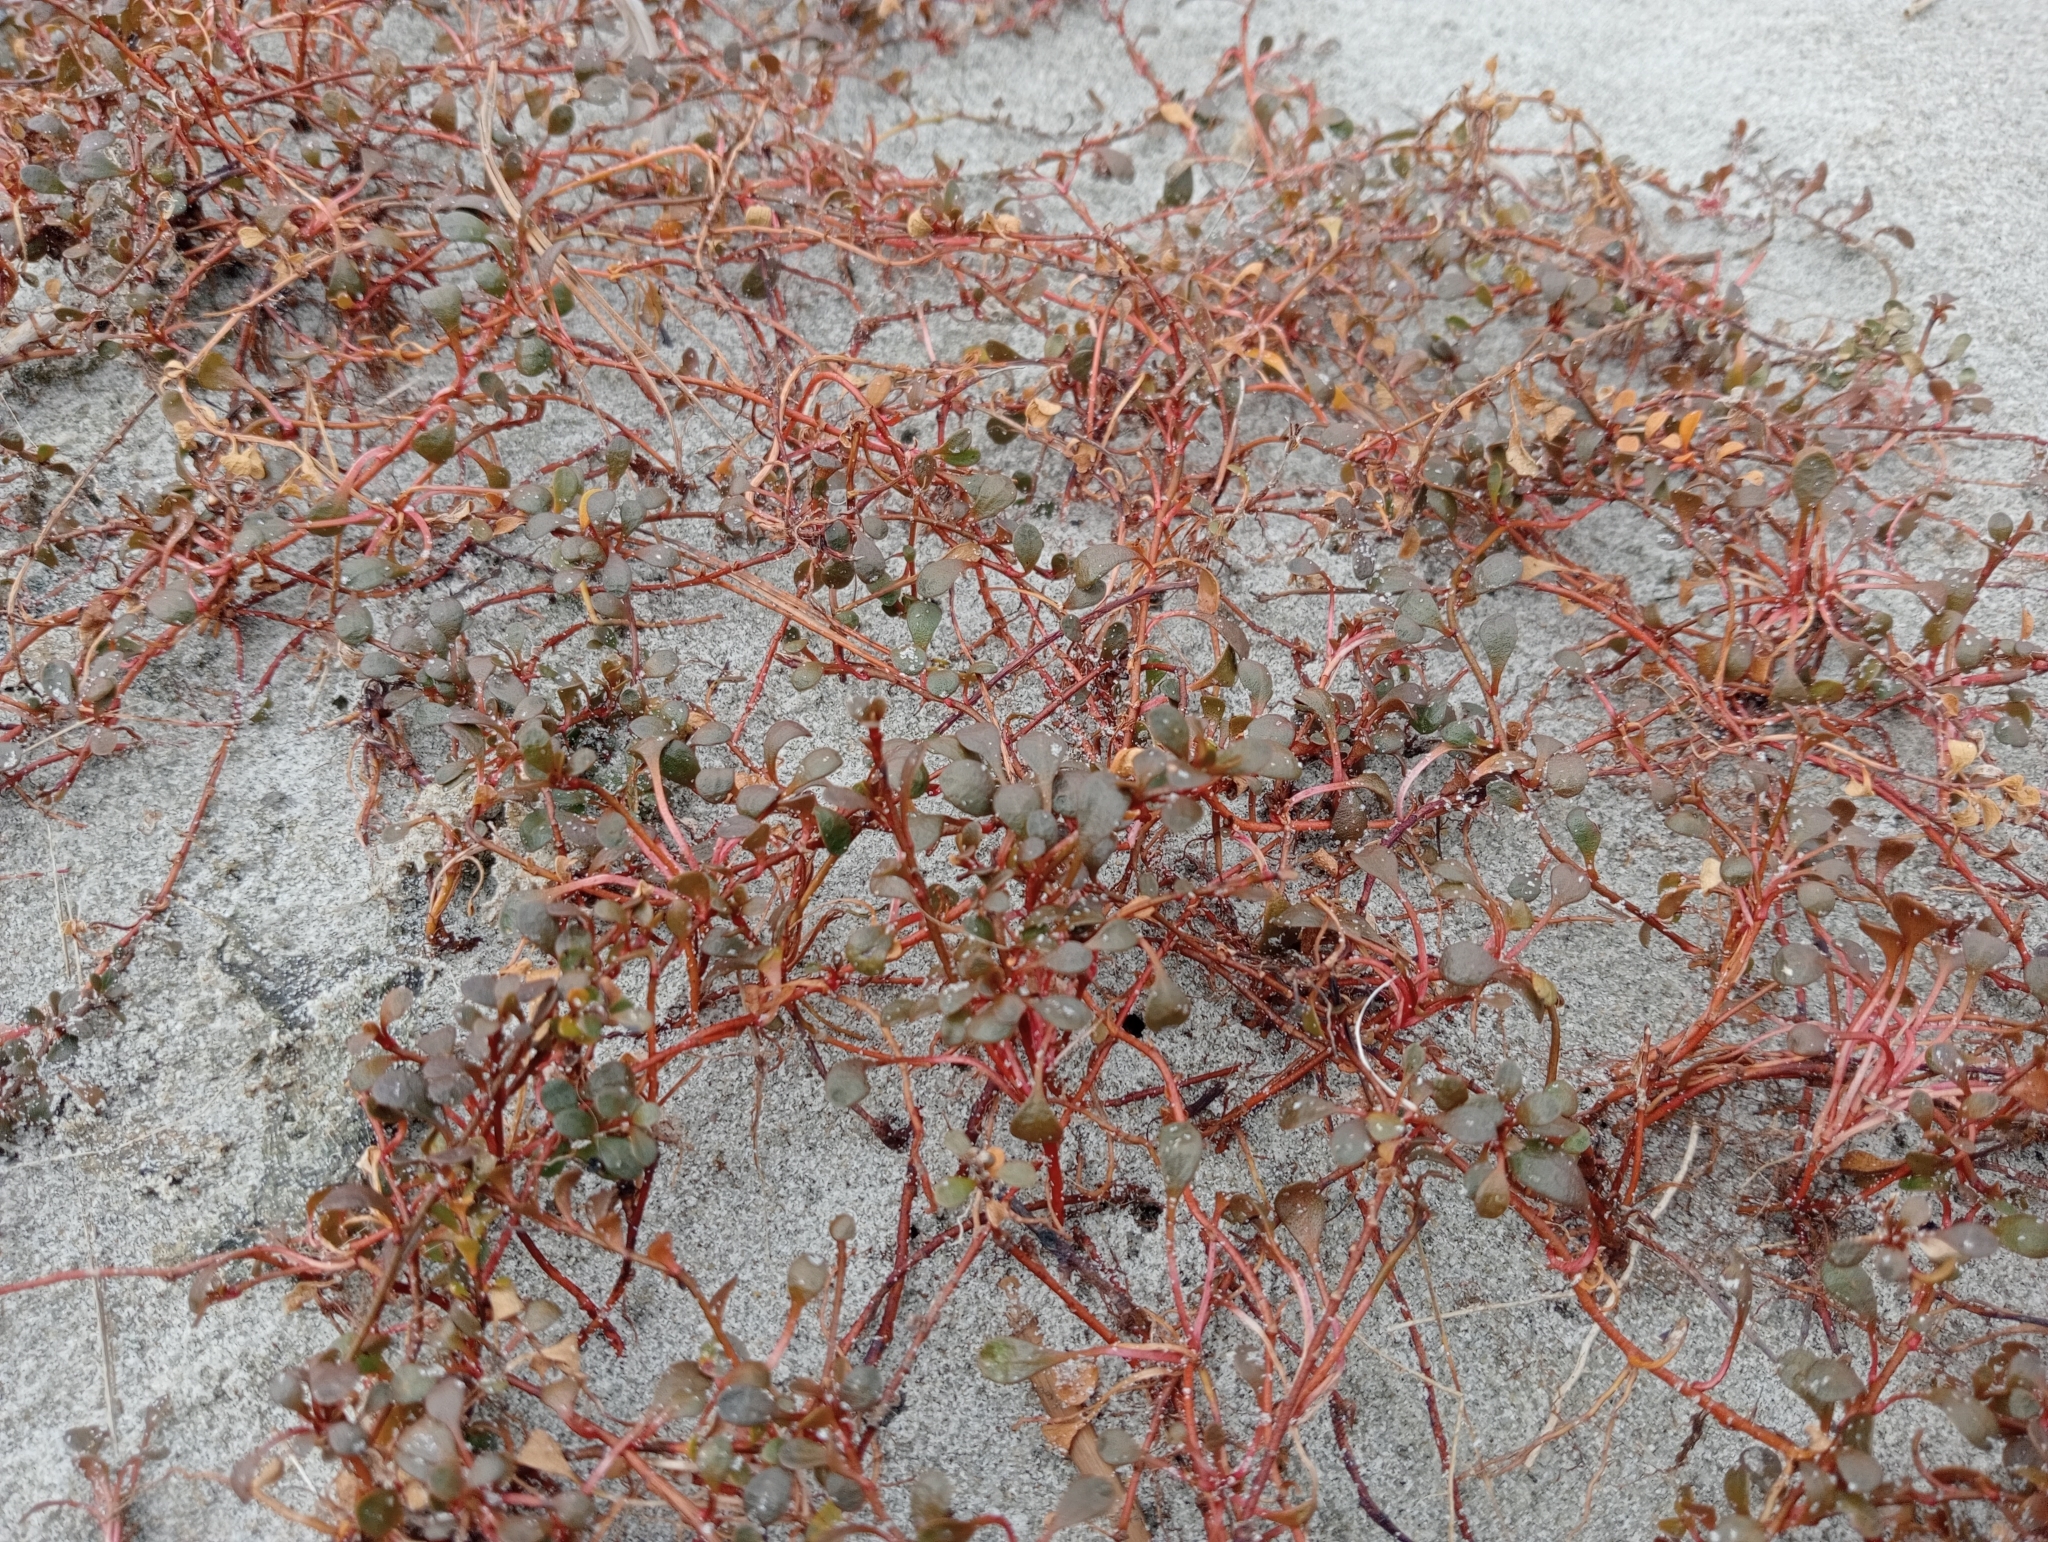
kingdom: Plantae
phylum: Tracheophyta
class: Magnoliopsida
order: Ericales
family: Primulaceae
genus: Samolus
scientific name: Samolus repens
